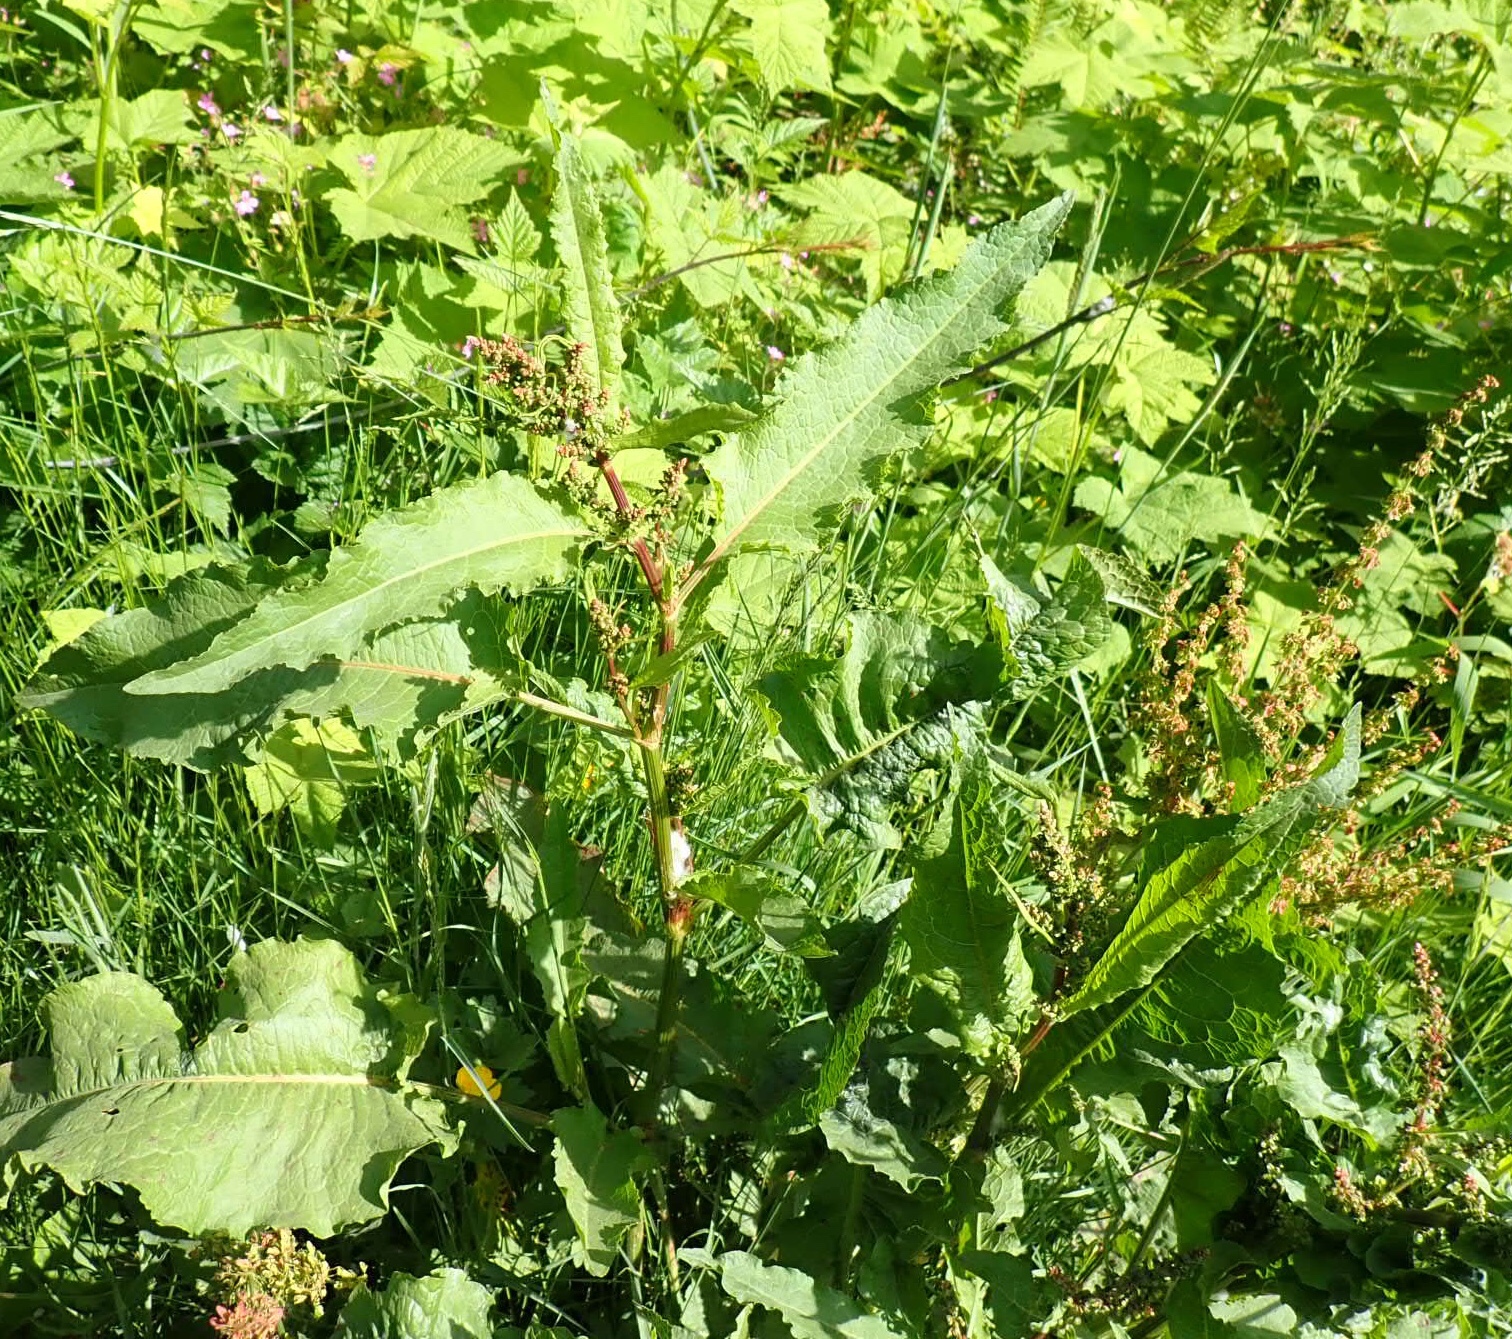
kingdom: Plantae
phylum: Tracheophyta
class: Magnoliopsida
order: Caryophyllales
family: Polygonaceae
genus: Rumex
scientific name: Rumex crispus
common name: Curled dock
